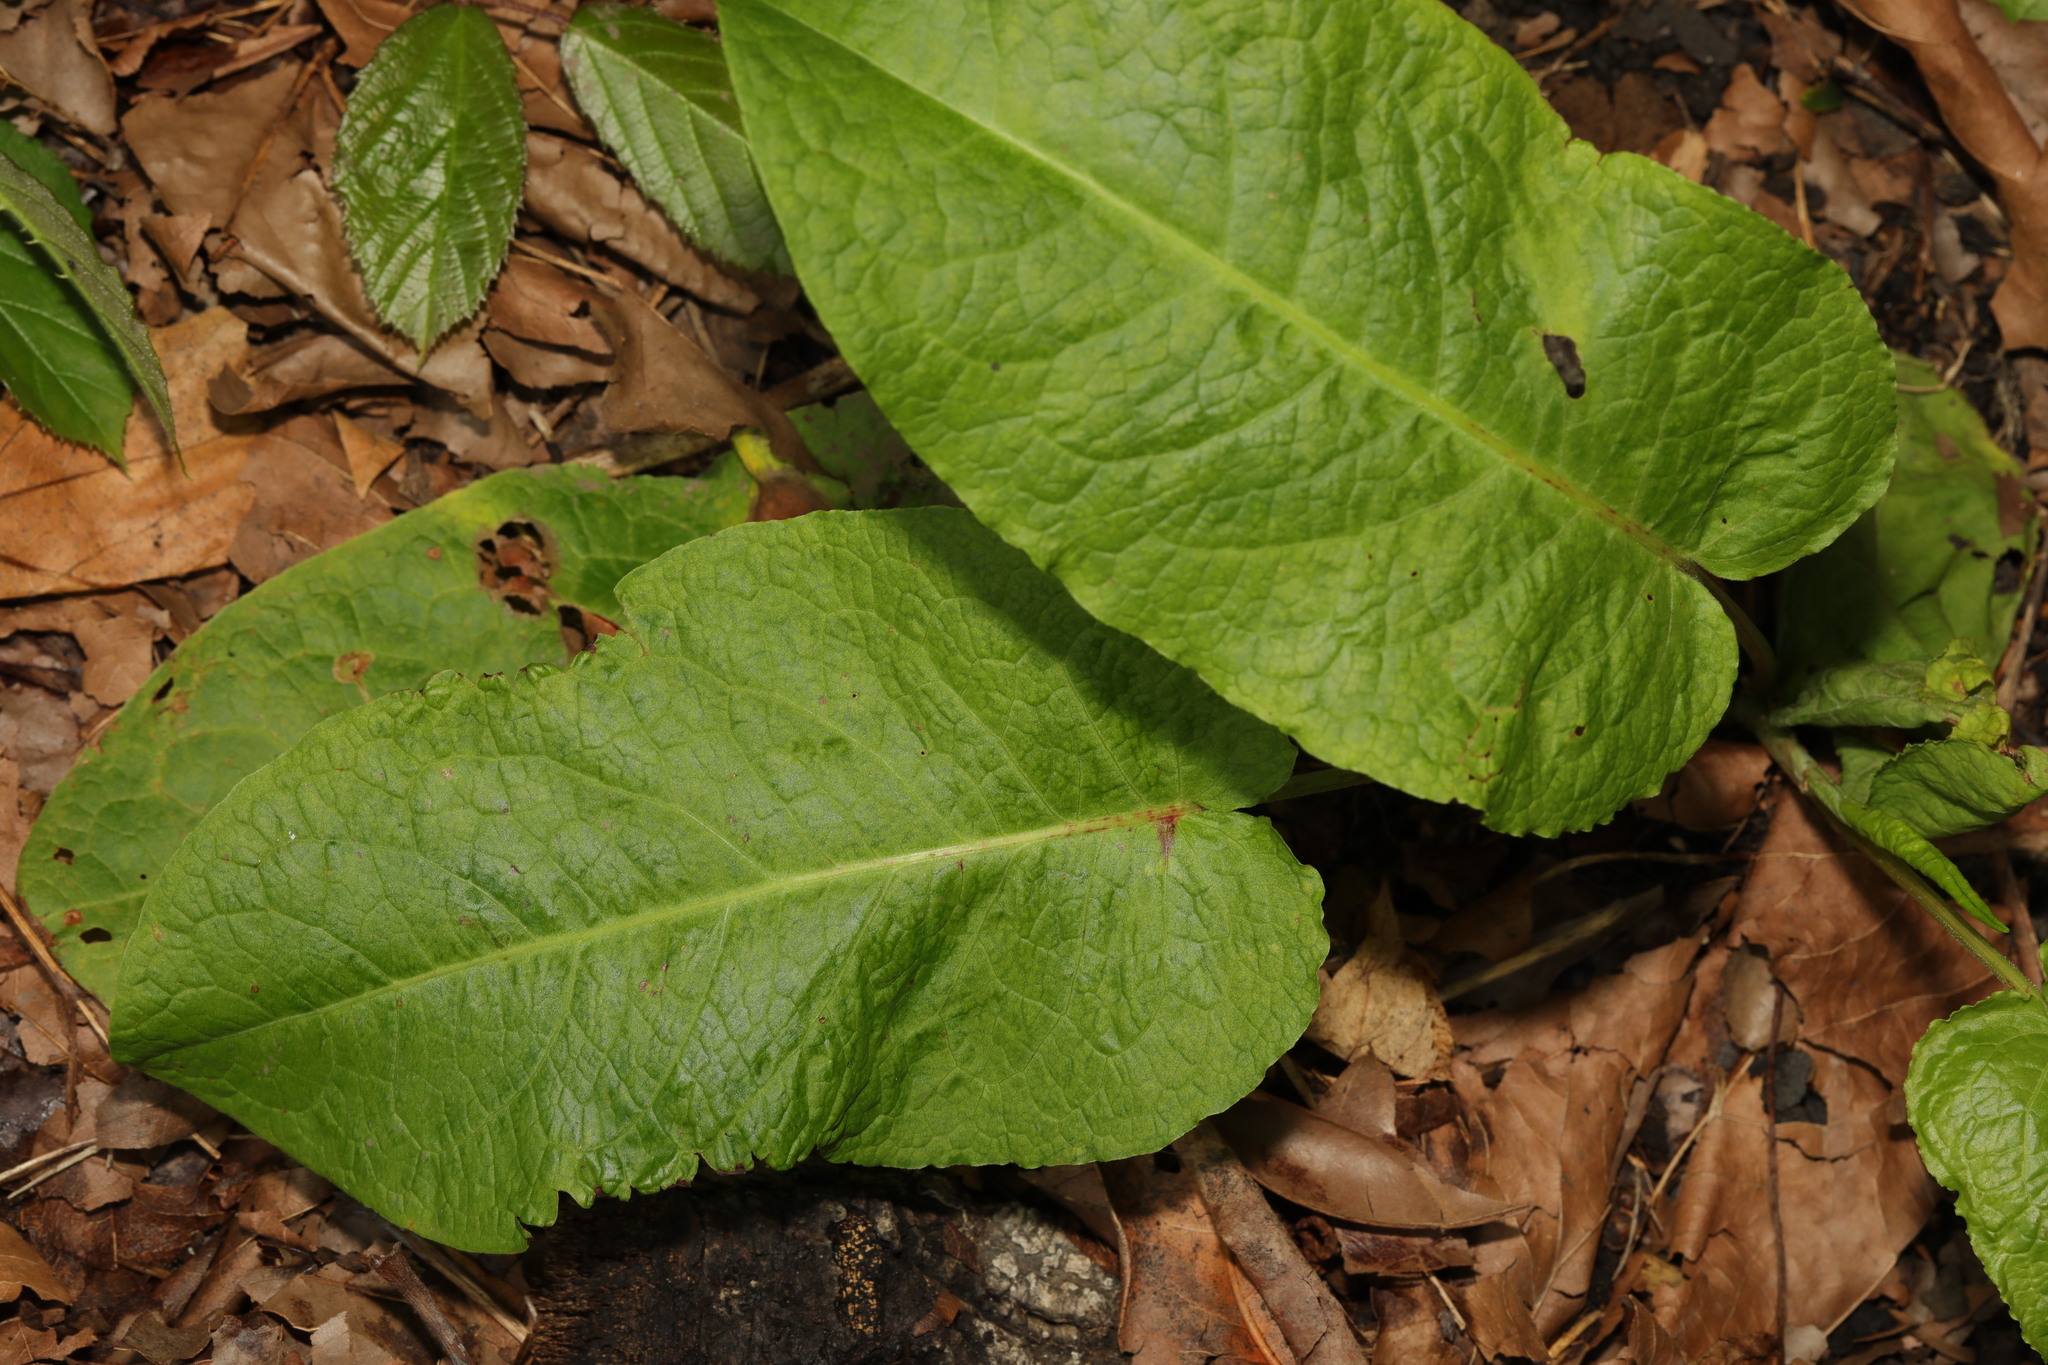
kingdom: Plantae
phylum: Tracheophyta
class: Magnoliopsida
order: Caryophyllales
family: Polygonaceae
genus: Rumex
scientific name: Rumex obtusifolius
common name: Bitter dock
